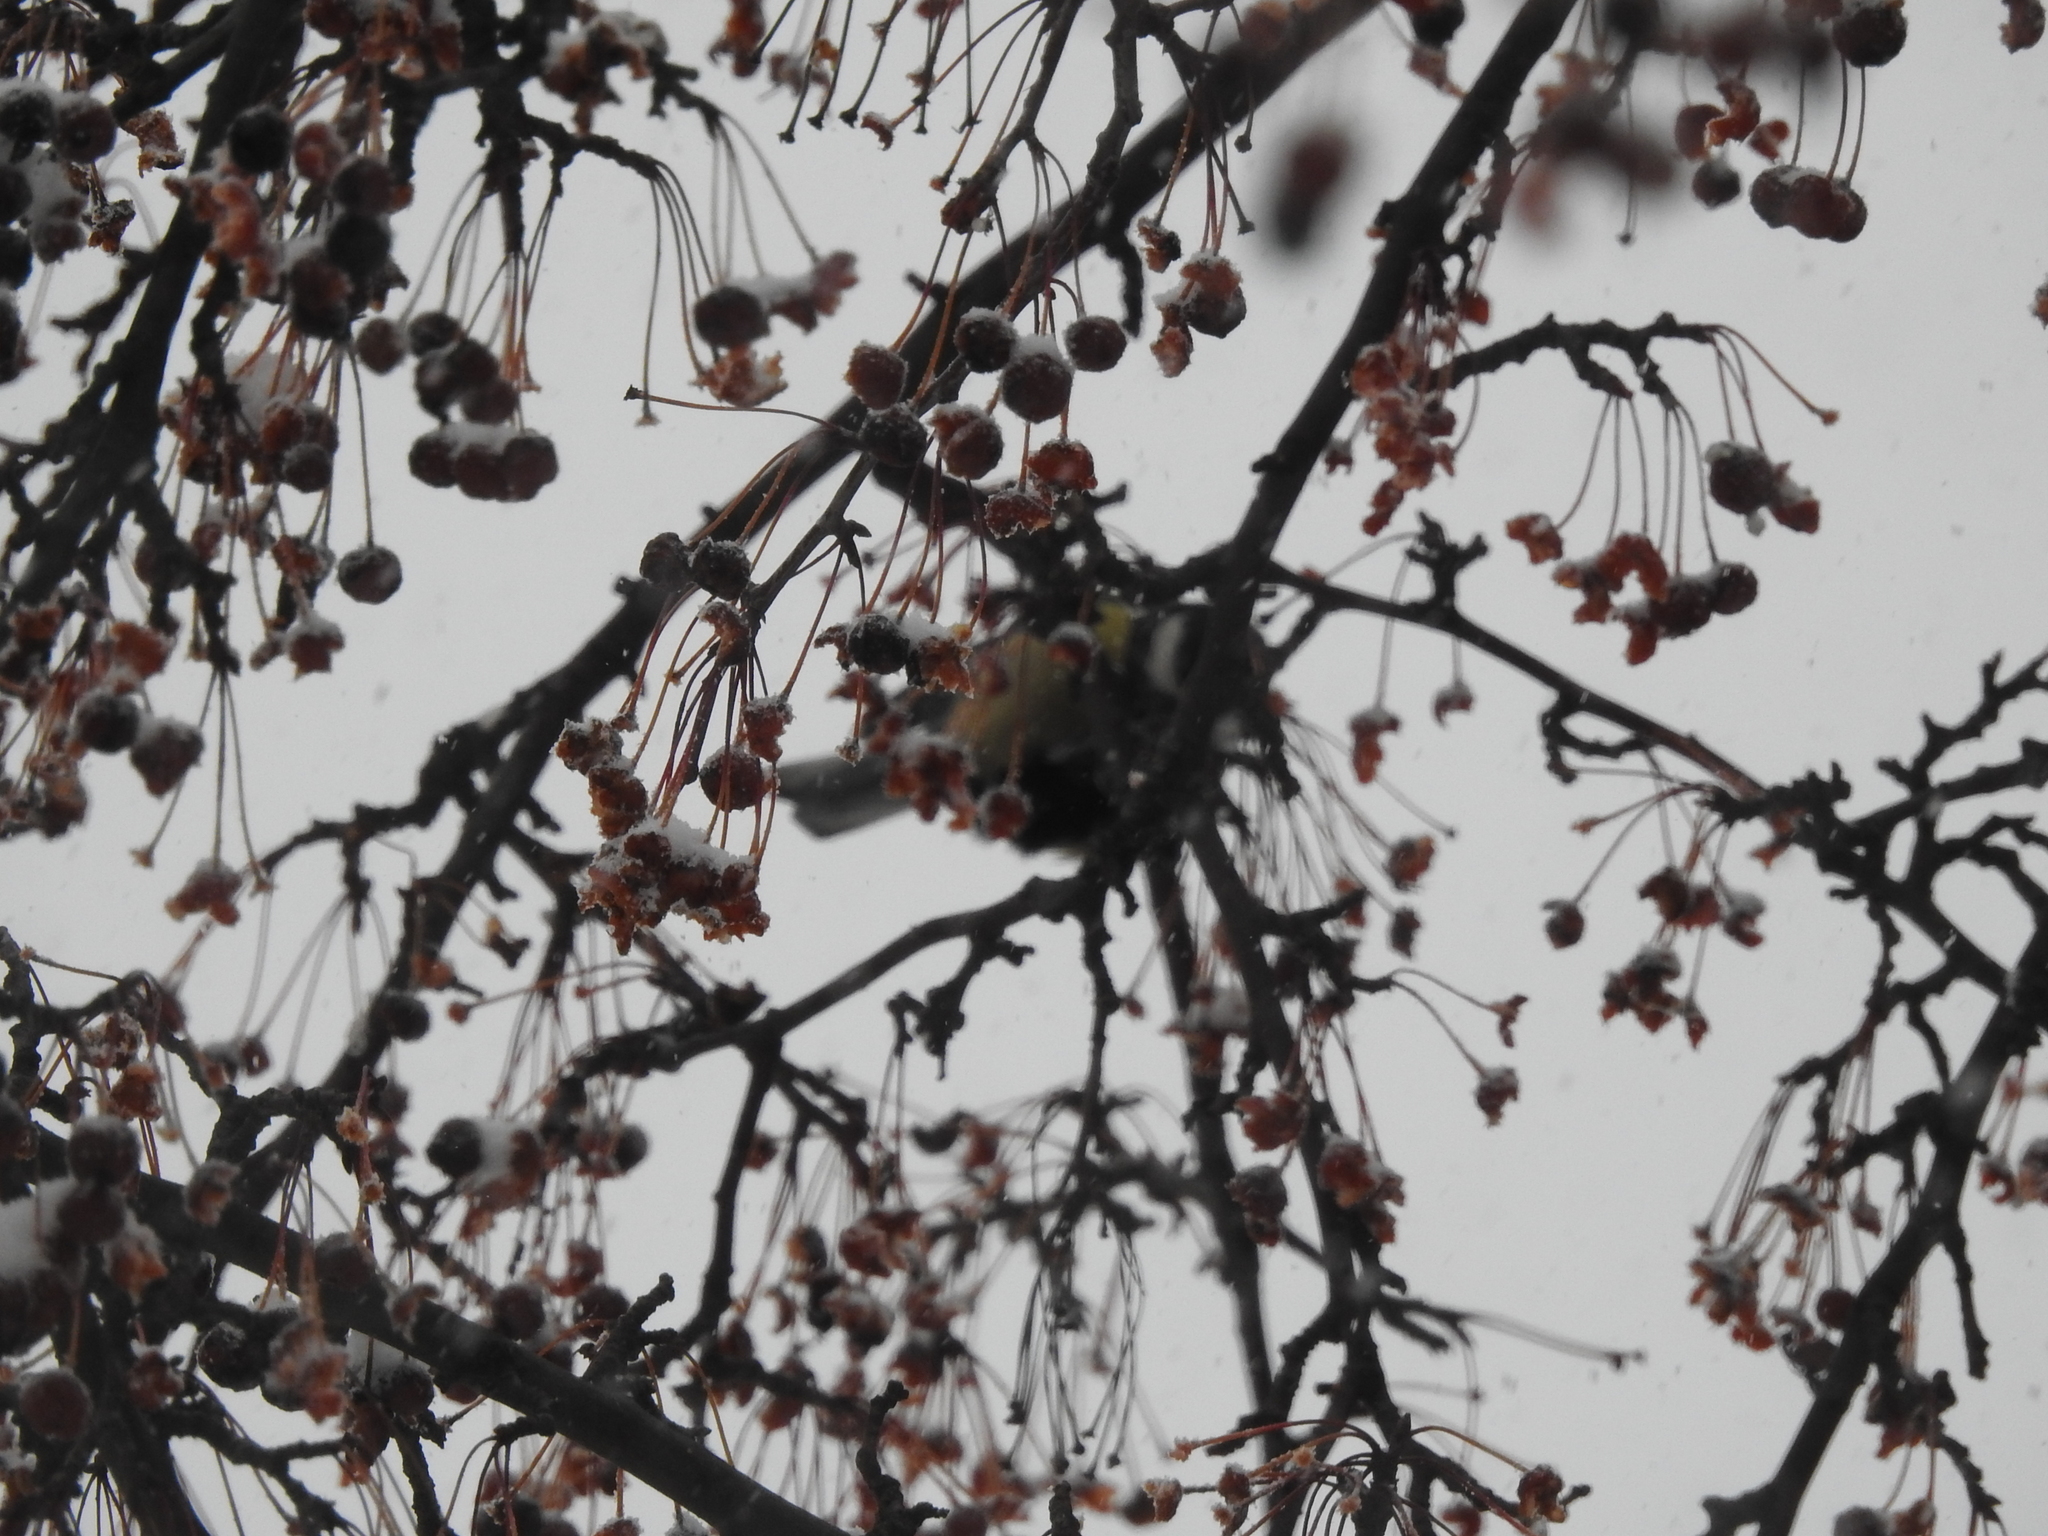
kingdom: Animalia
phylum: Chordata
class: Aves
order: Passeriformes
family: Paridae
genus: Parus
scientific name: Parus major
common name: Great tit
